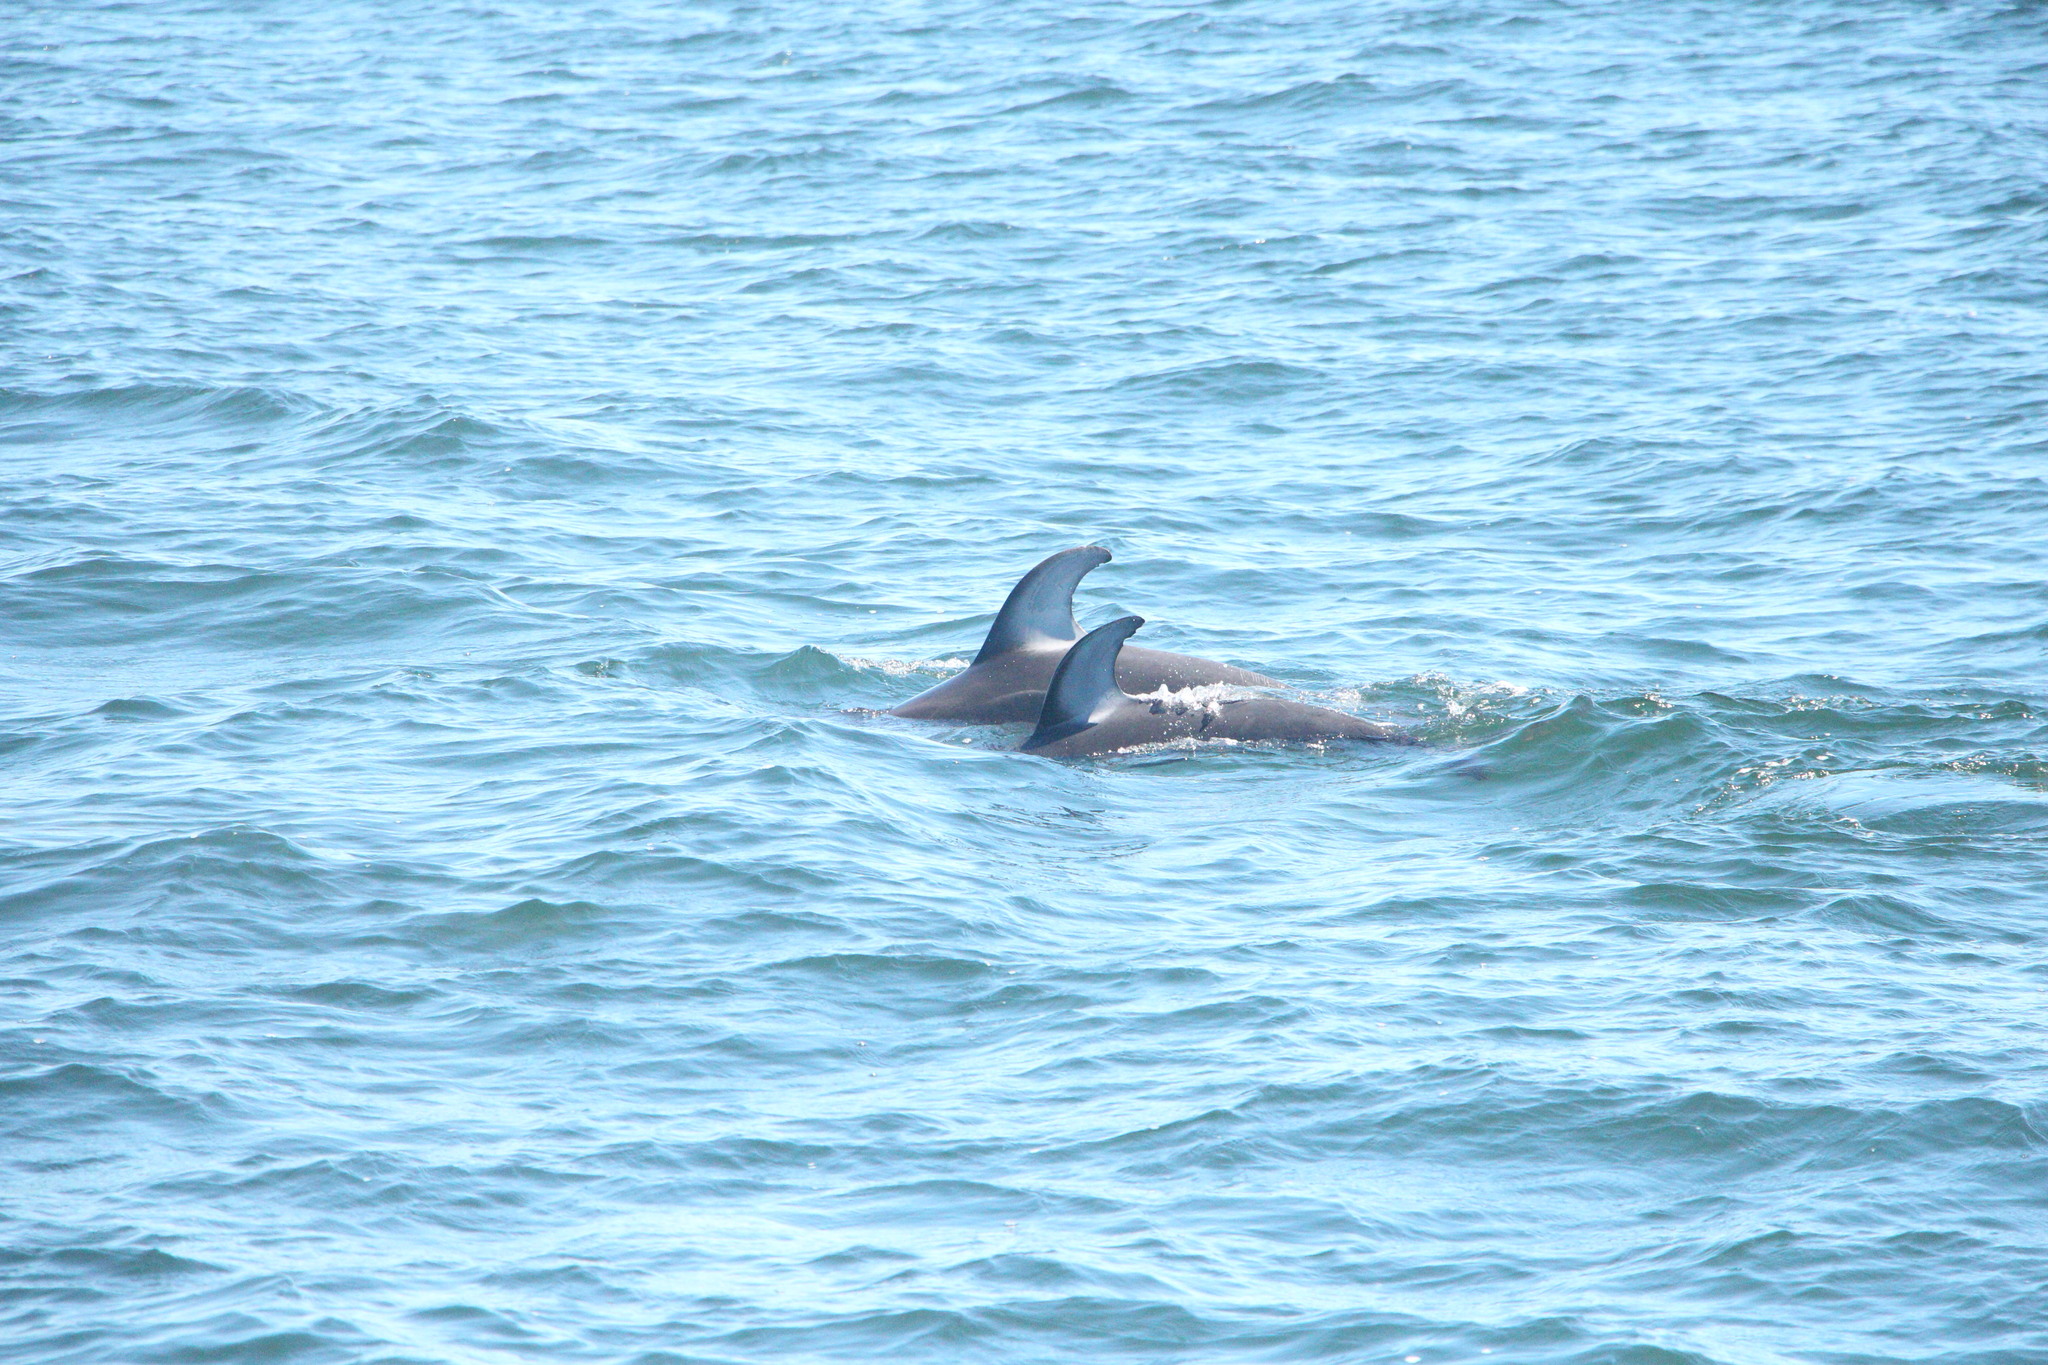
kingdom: Animalia
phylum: Chordata
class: Mammalia
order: Cetacea
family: Delphinidae
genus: Lagenorhynchus
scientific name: Lagenorhynchus obliquidens
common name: Pacific white-sided dolphin
